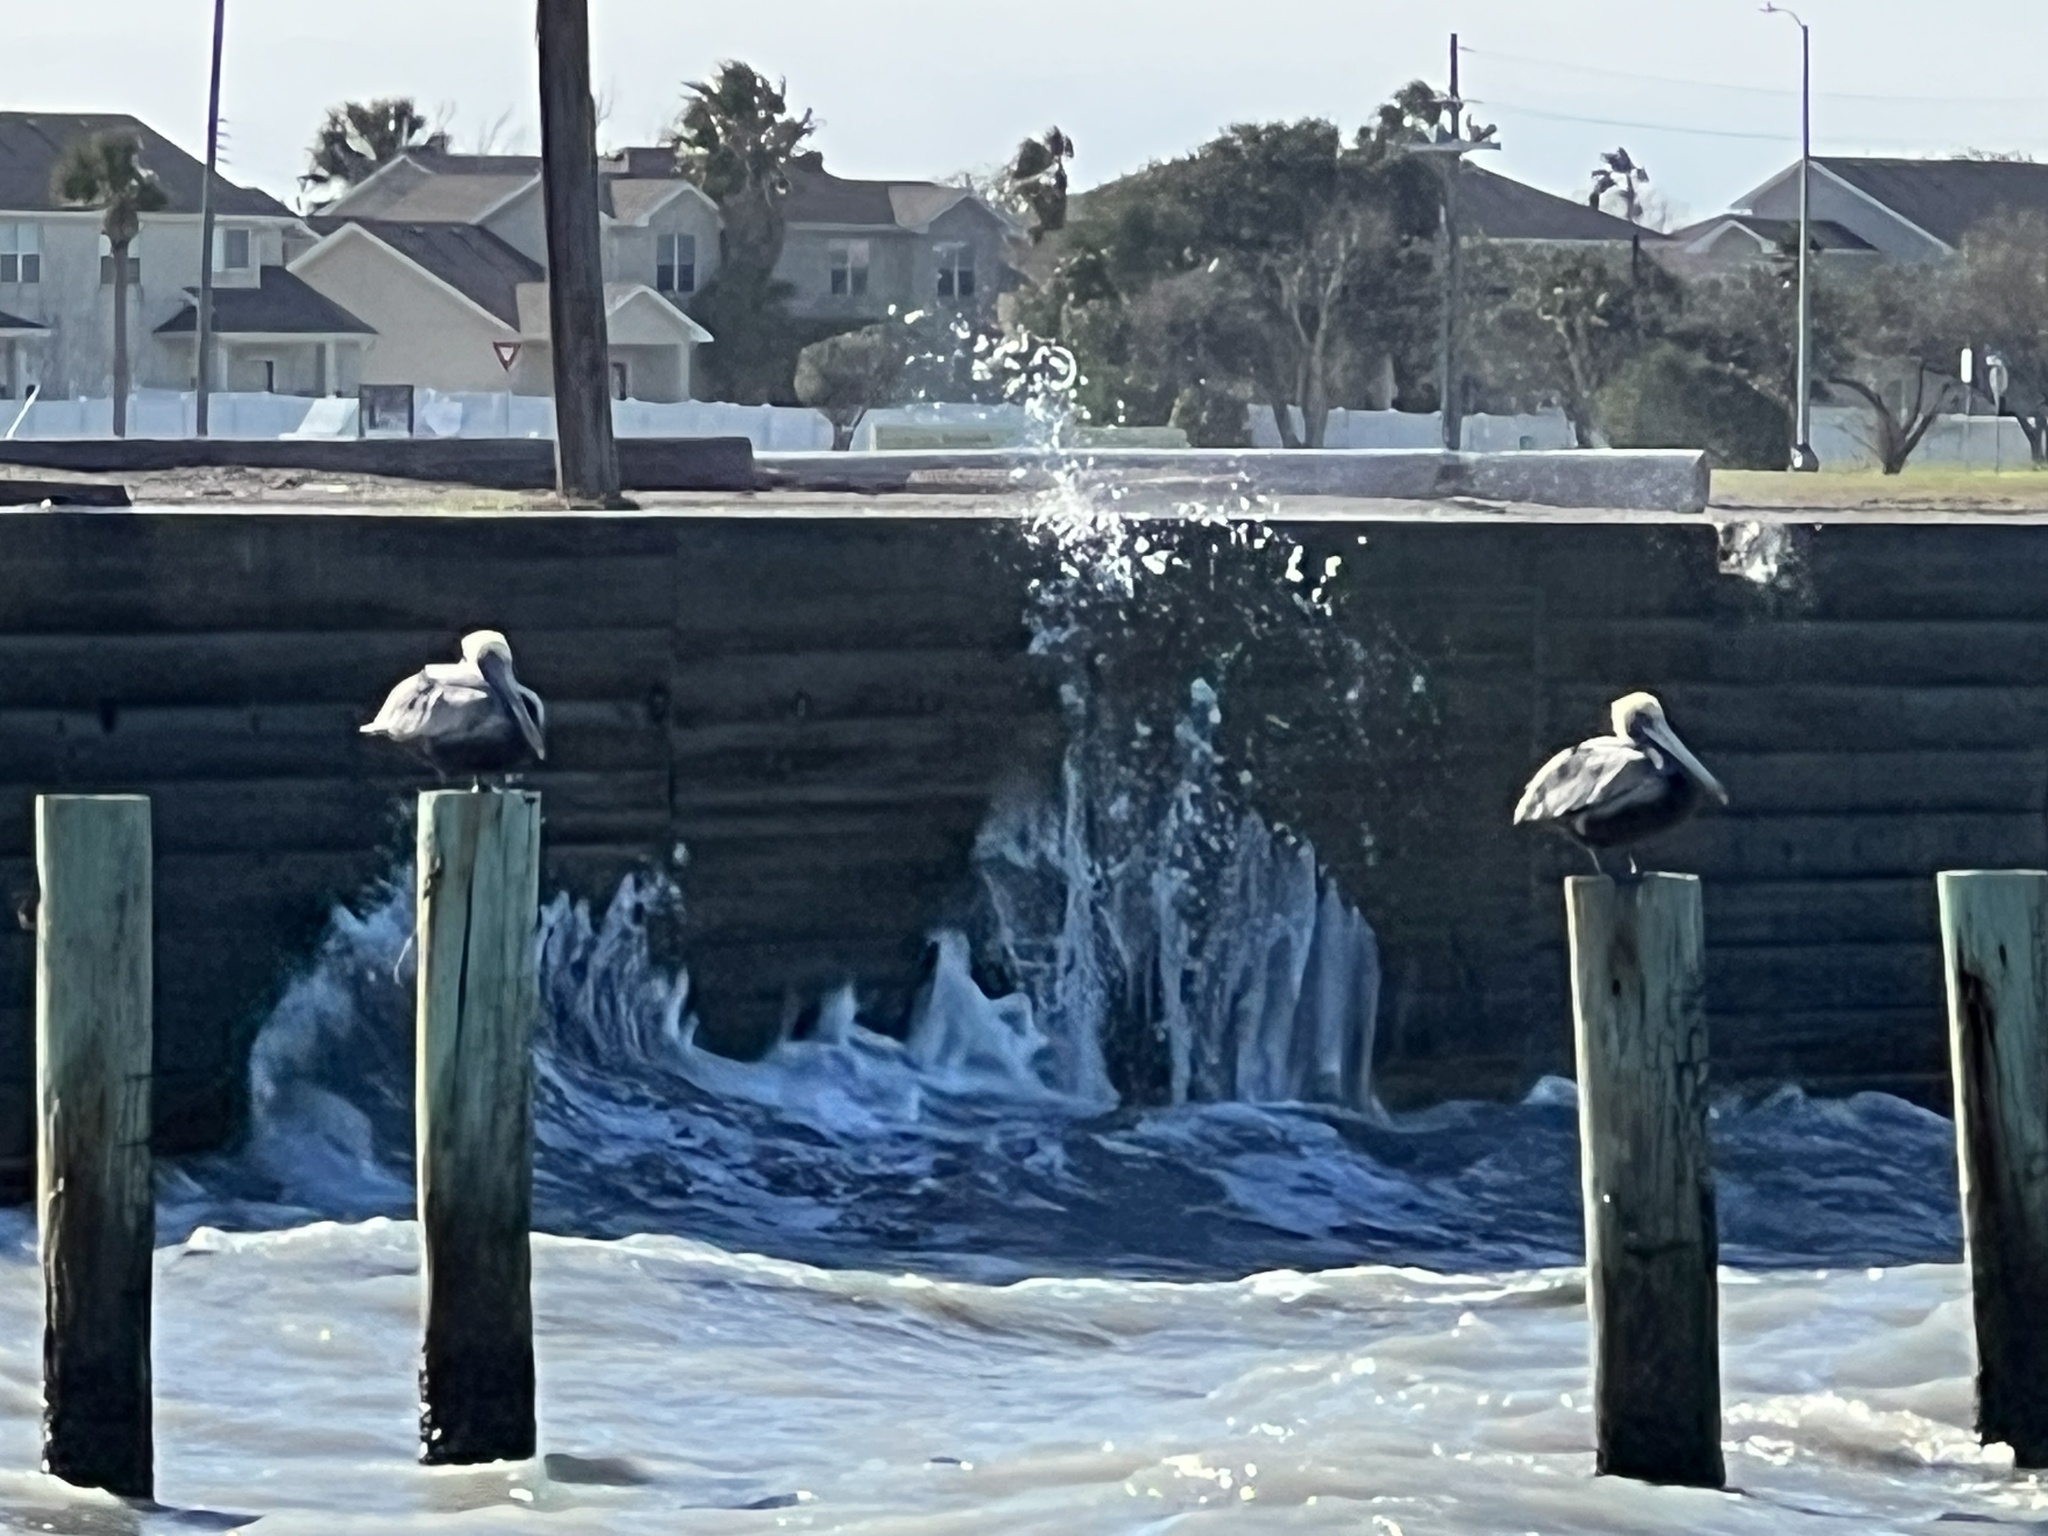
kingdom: Animalia
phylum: Chordata
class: Aves
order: Pelecaniformes
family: Pelecanidae
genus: Pelecanus
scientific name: Pelecanus occidentalis
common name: Brown pelican
